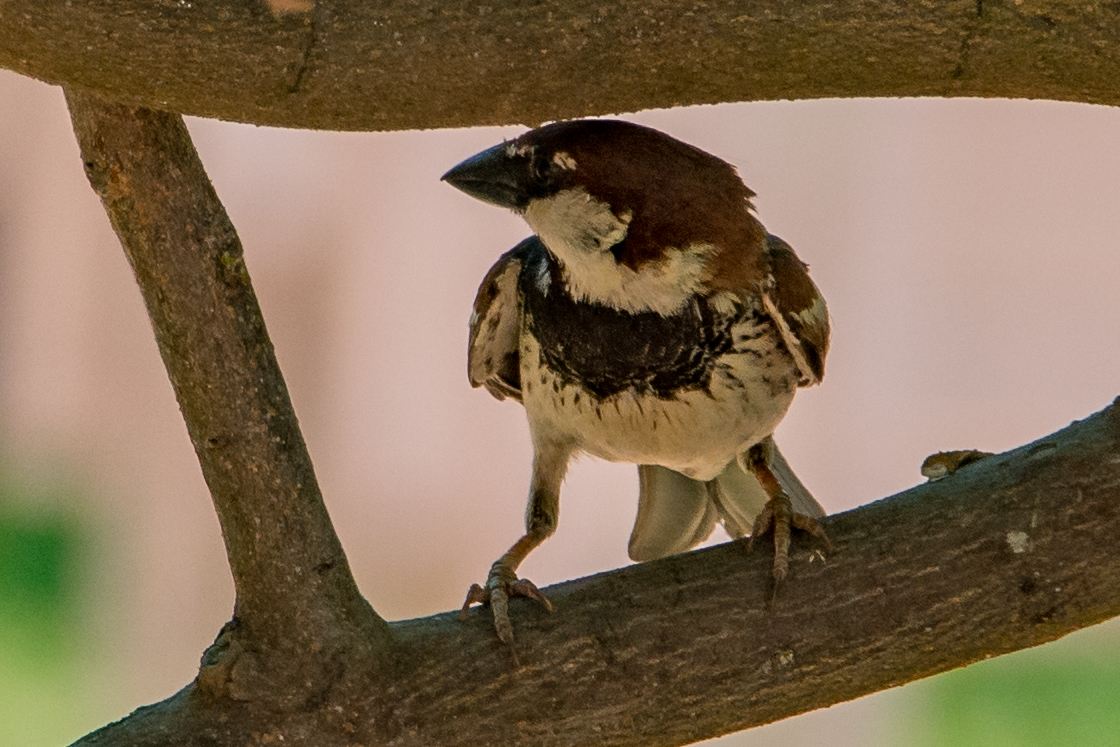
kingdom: Animalia
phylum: Chordata
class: Aves
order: Passeriformes
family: Passeridae
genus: Passer
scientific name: Passer italiae
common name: Italian sparrow
